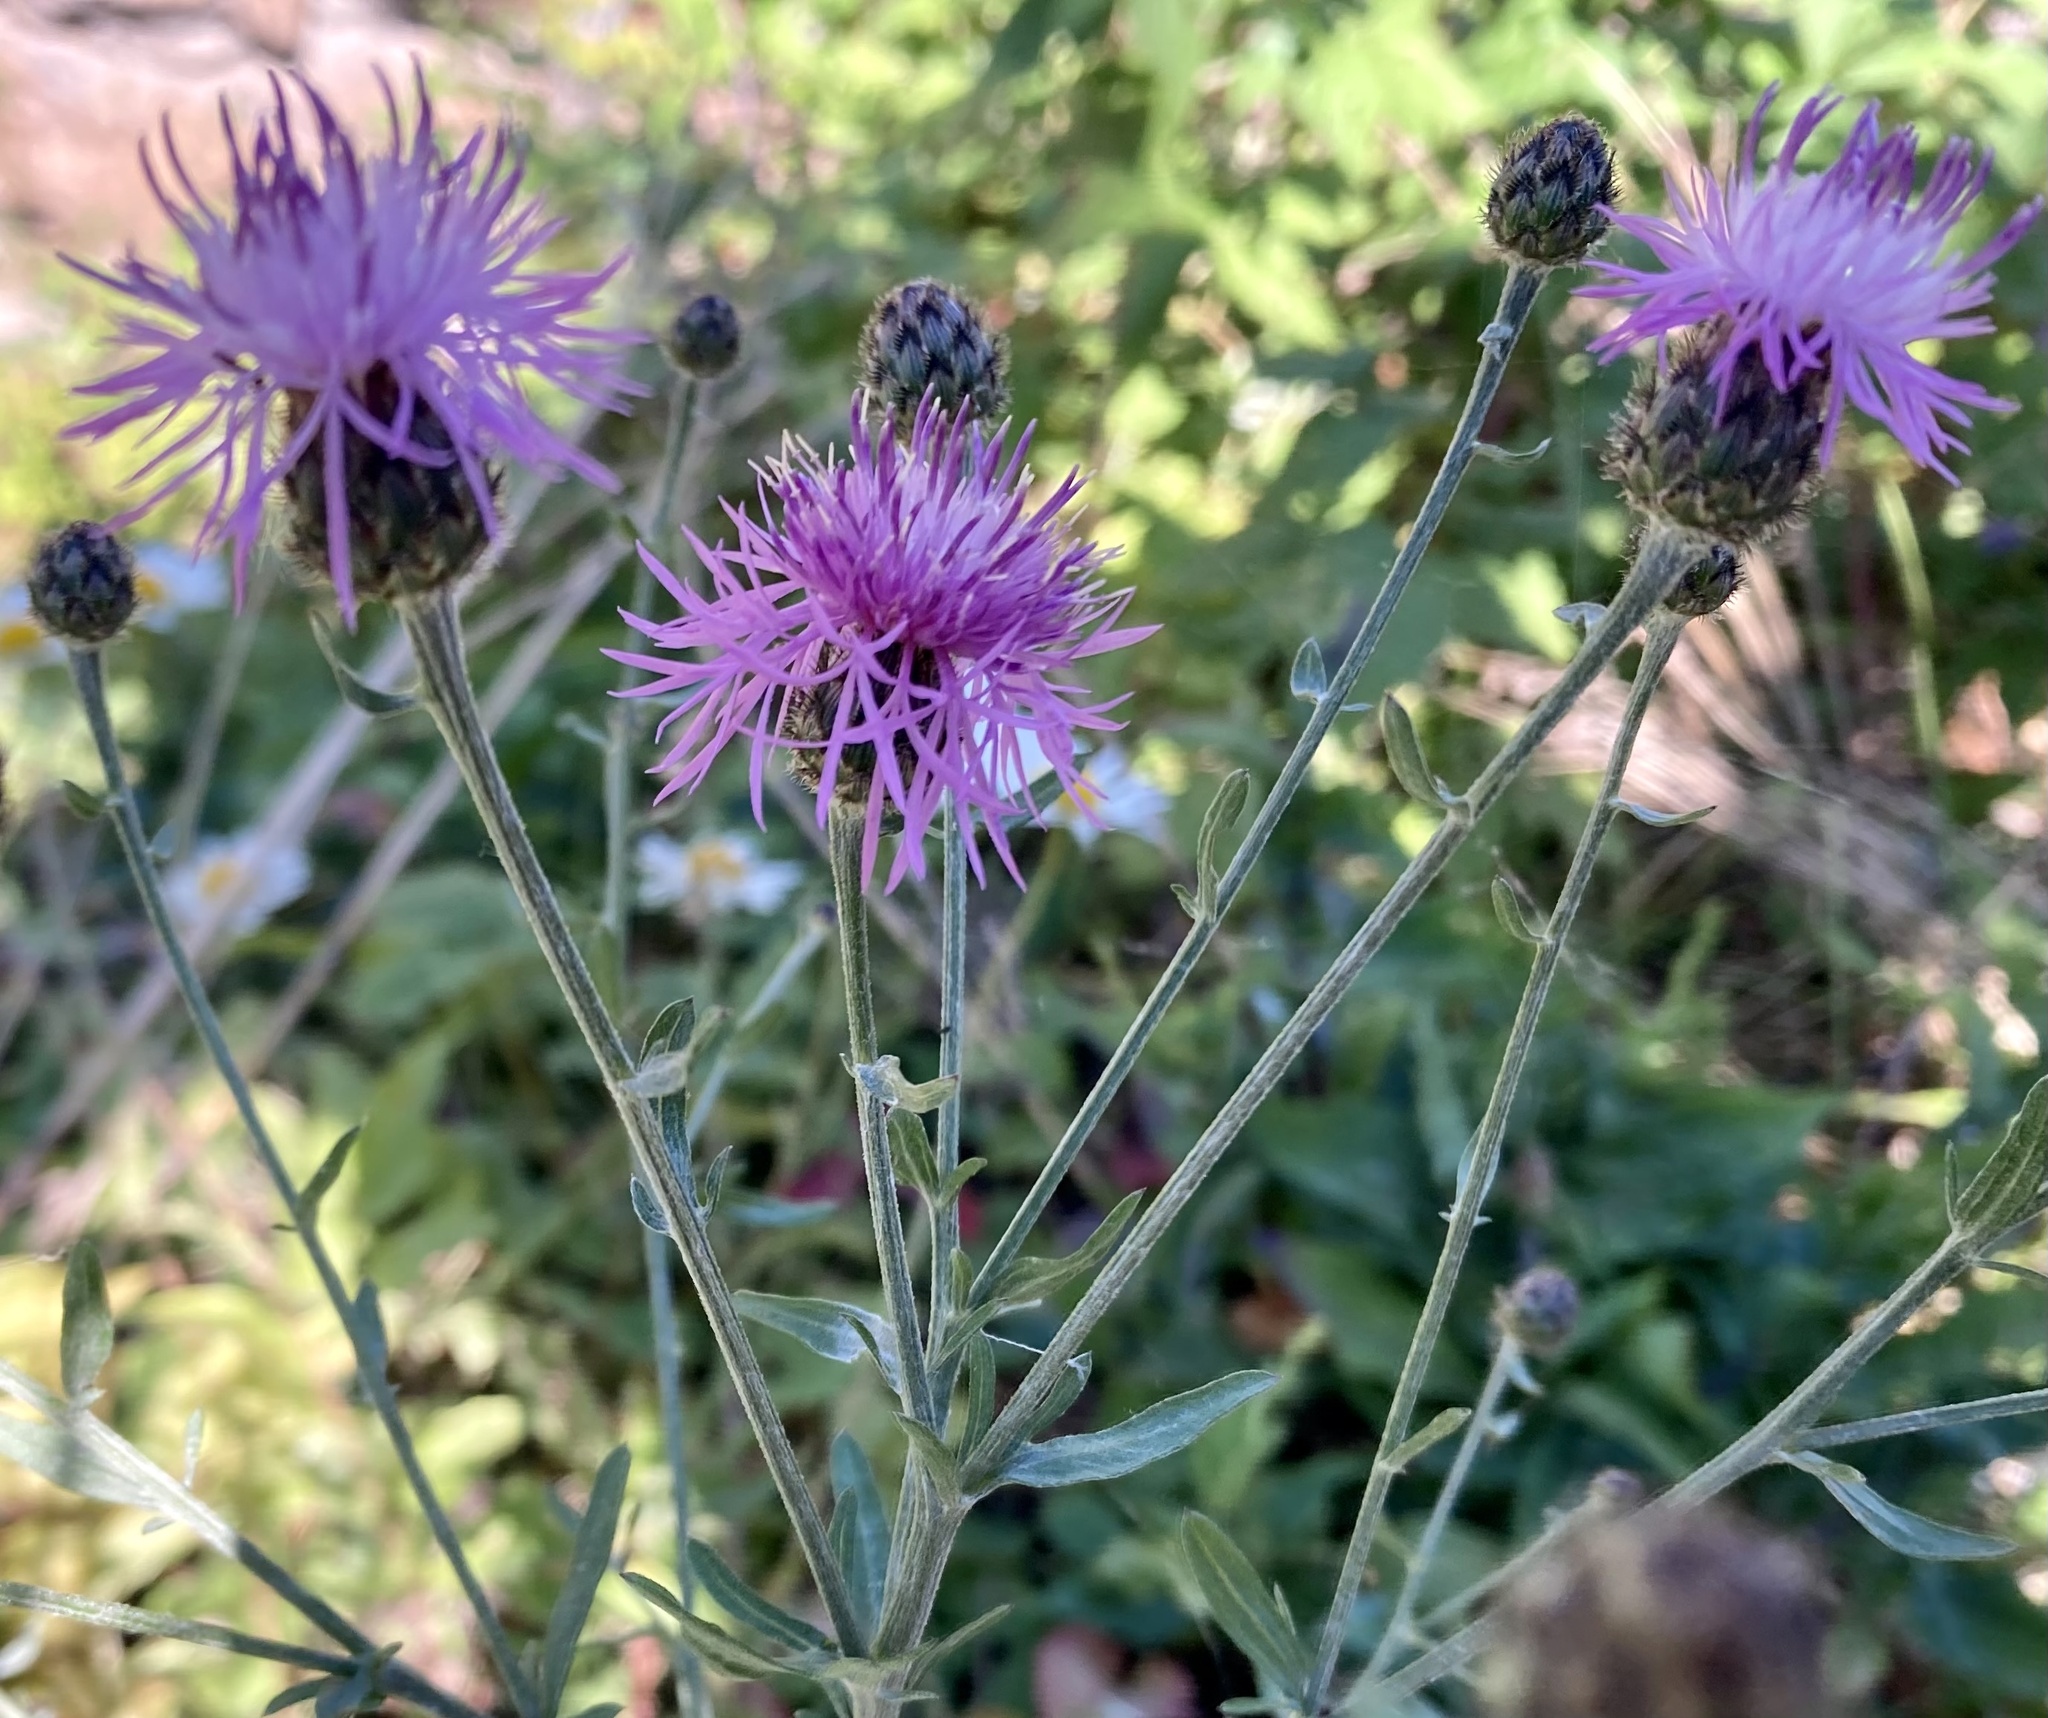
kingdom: Plantae
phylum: Tracheophyta
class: Magnoliopsida
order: Asterales
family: Asteraceae
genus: Centaurea
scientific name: Centaurea stoebe
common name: Spotted knapweed
